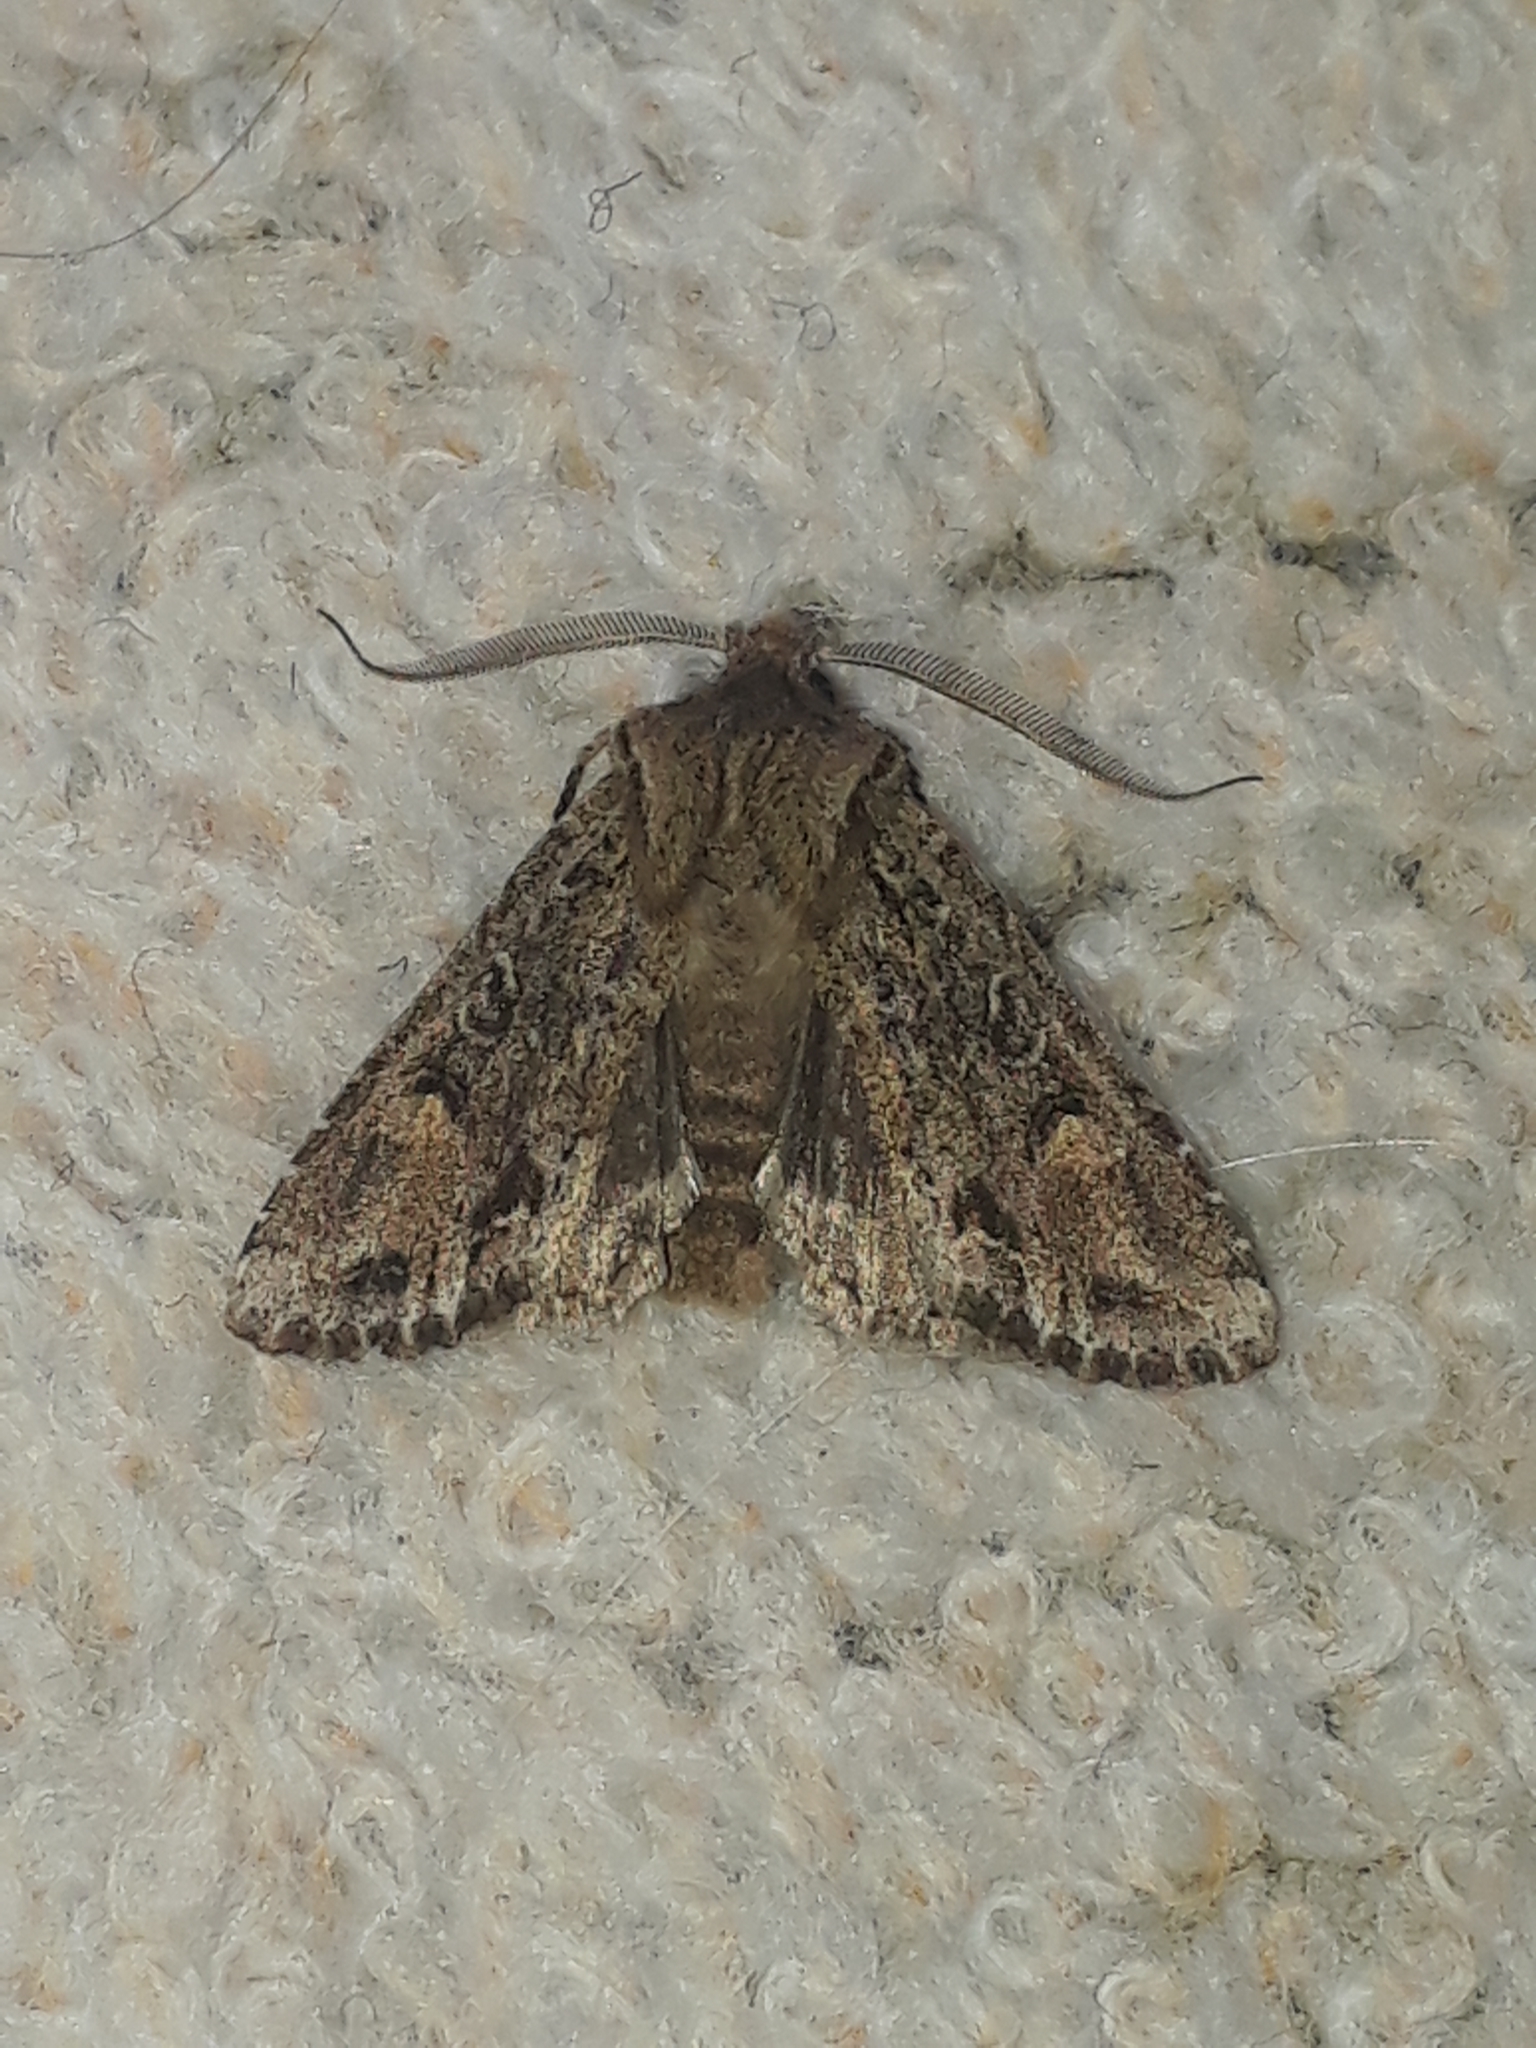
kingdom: Animalia
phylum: Arthropoda
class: Insecta
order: Lepidoptera
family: Noctuidae
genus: Ichneutica
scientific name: Ichneutica mutans
